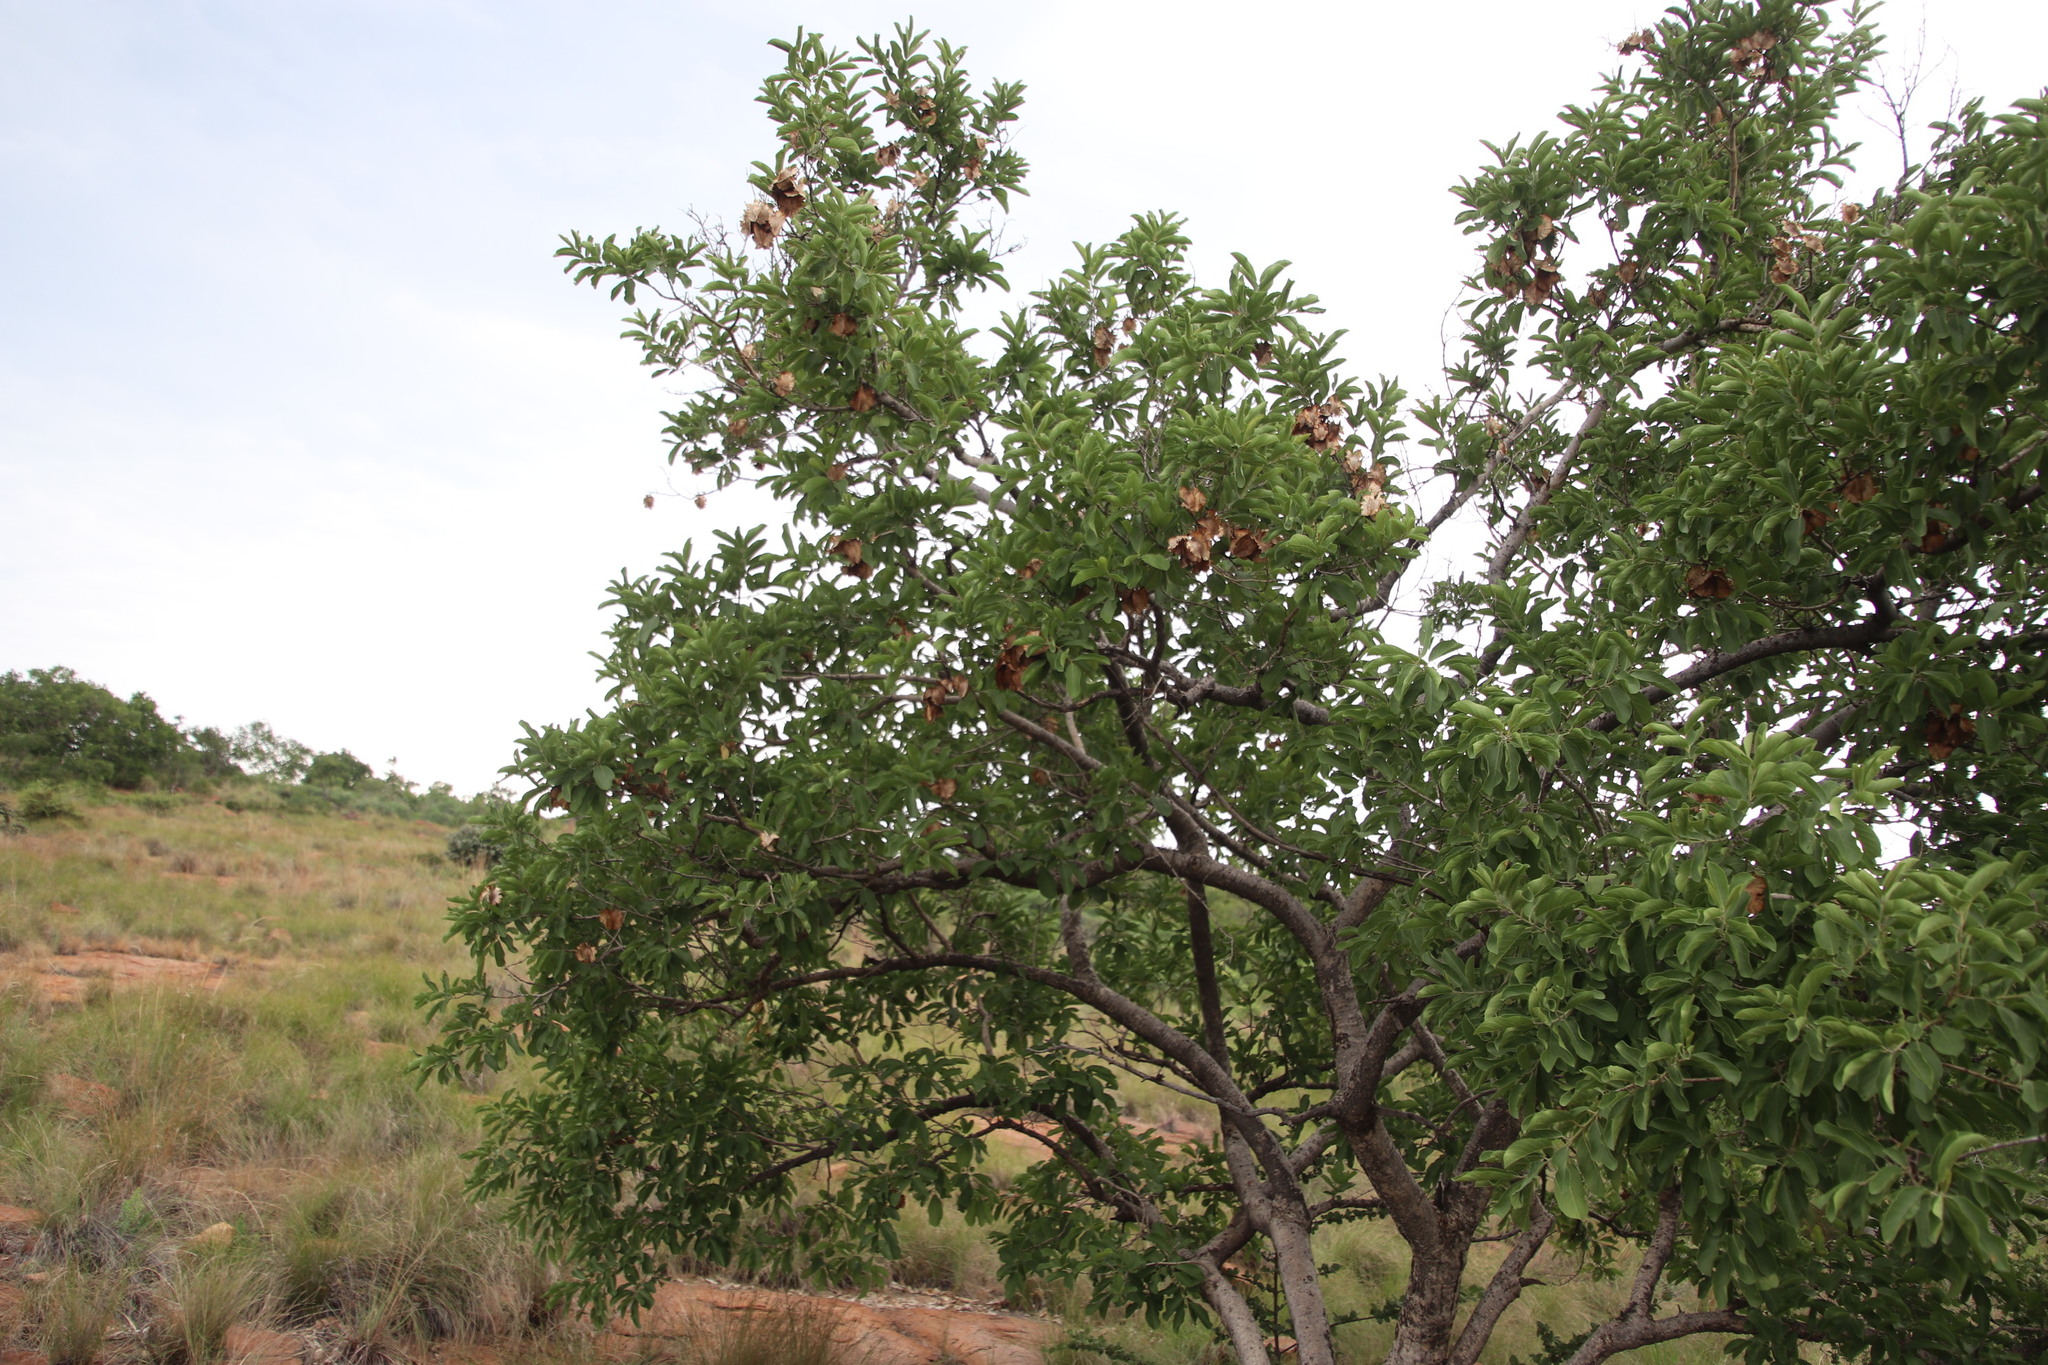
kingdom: Plantae
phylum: Tracheophyta
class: Magnoliopsida
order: Myrtales
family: Combretaceae
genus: Combretum
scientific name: Combretum zeyheri
